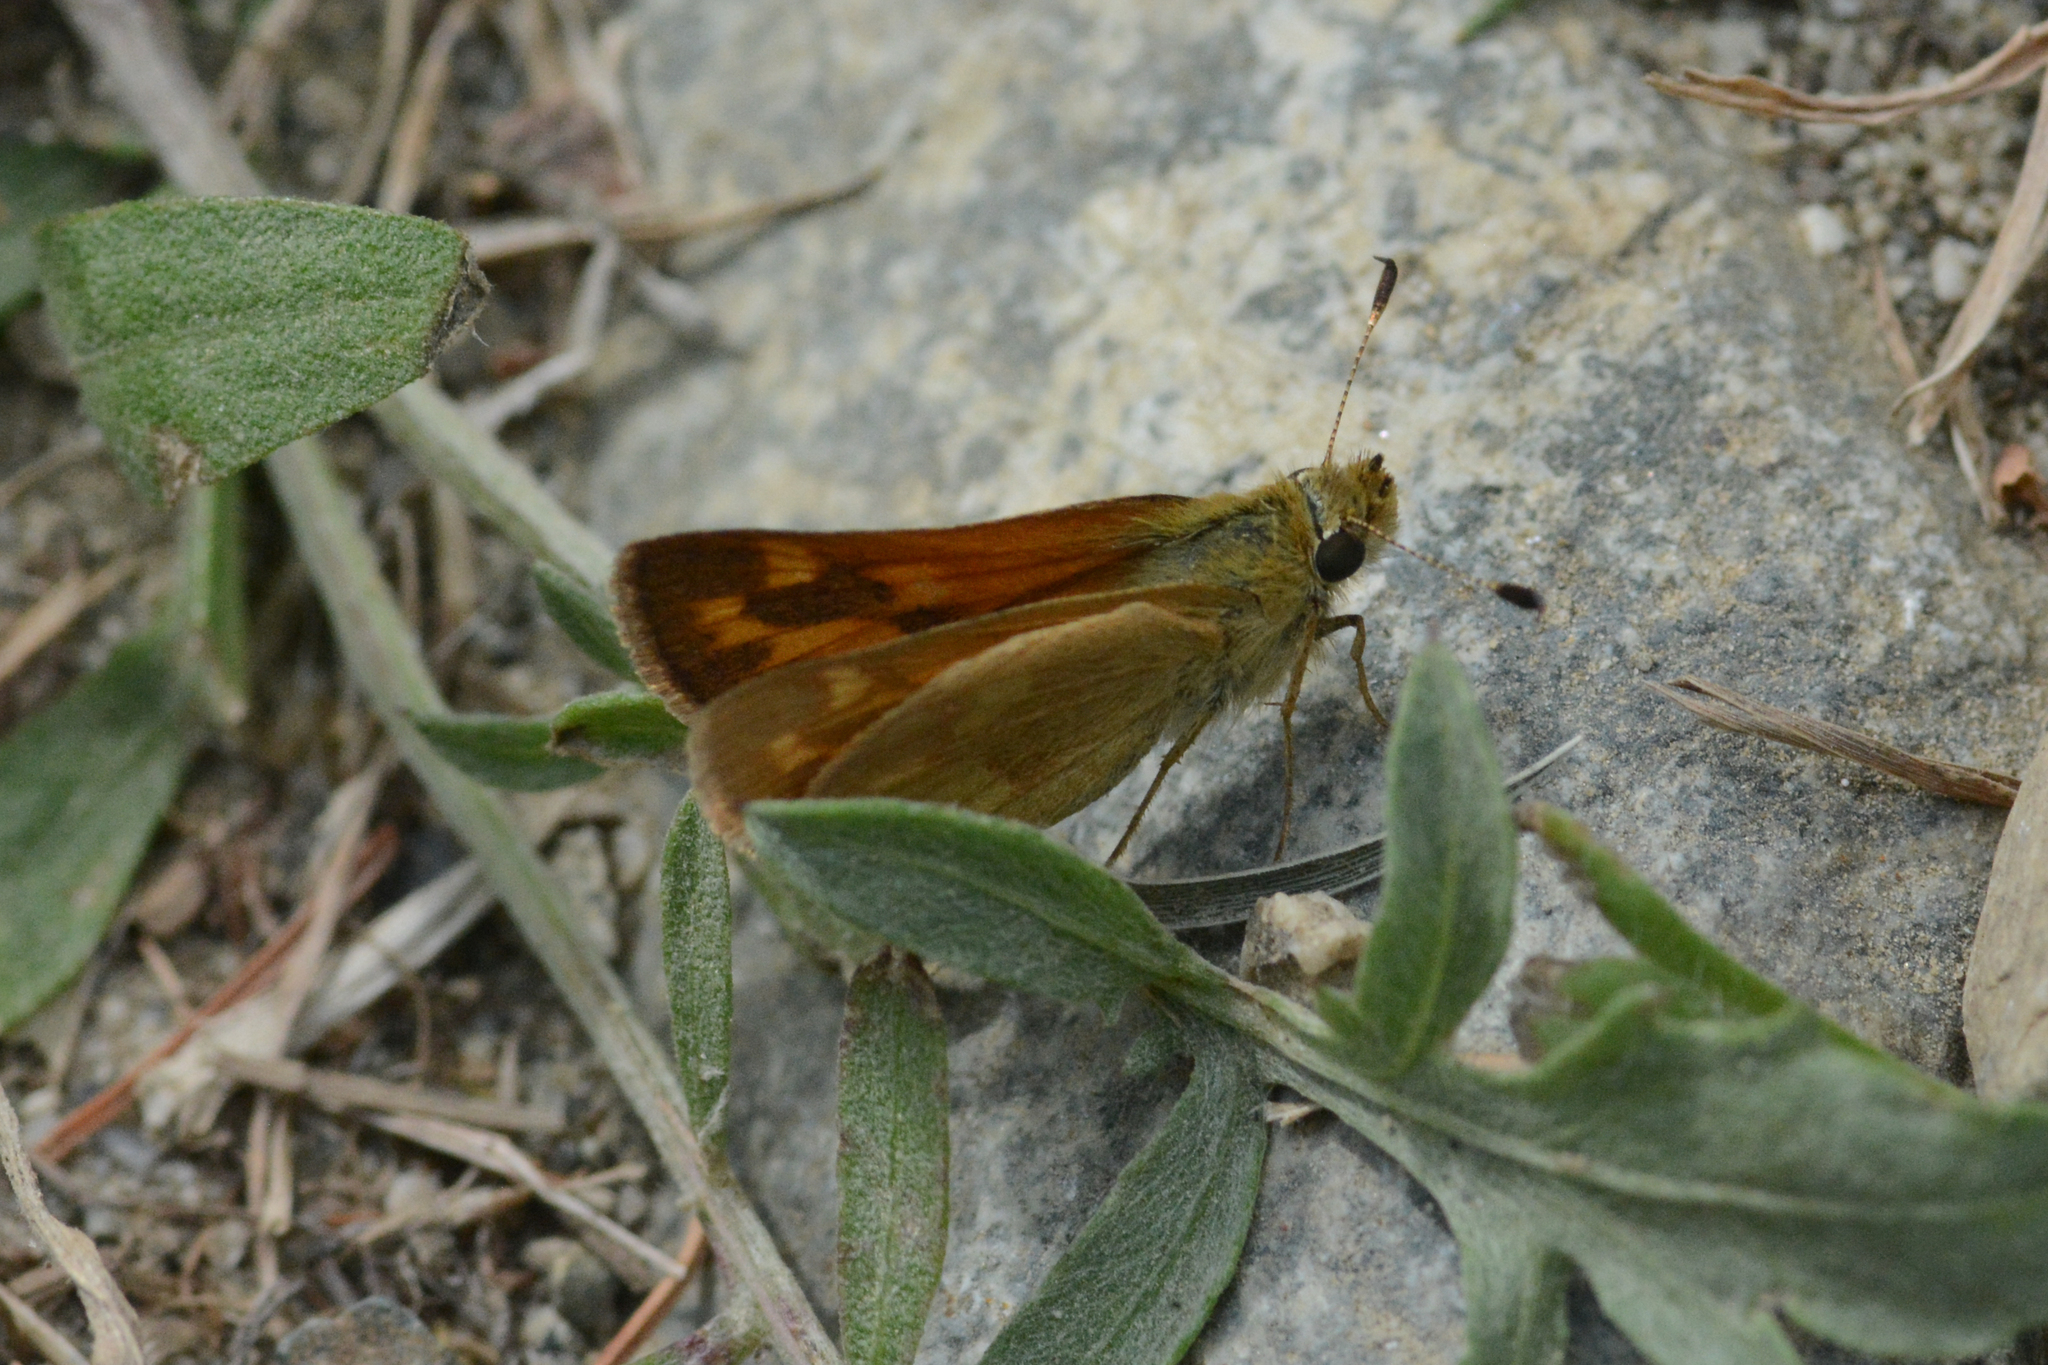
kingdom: Animalia
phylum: Arthropoda
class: Insecta
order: Lepidoptera
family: Hesperiidae
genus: Ochlodes
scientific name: Ochlodes sylvanoides
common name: Woodland skipper
